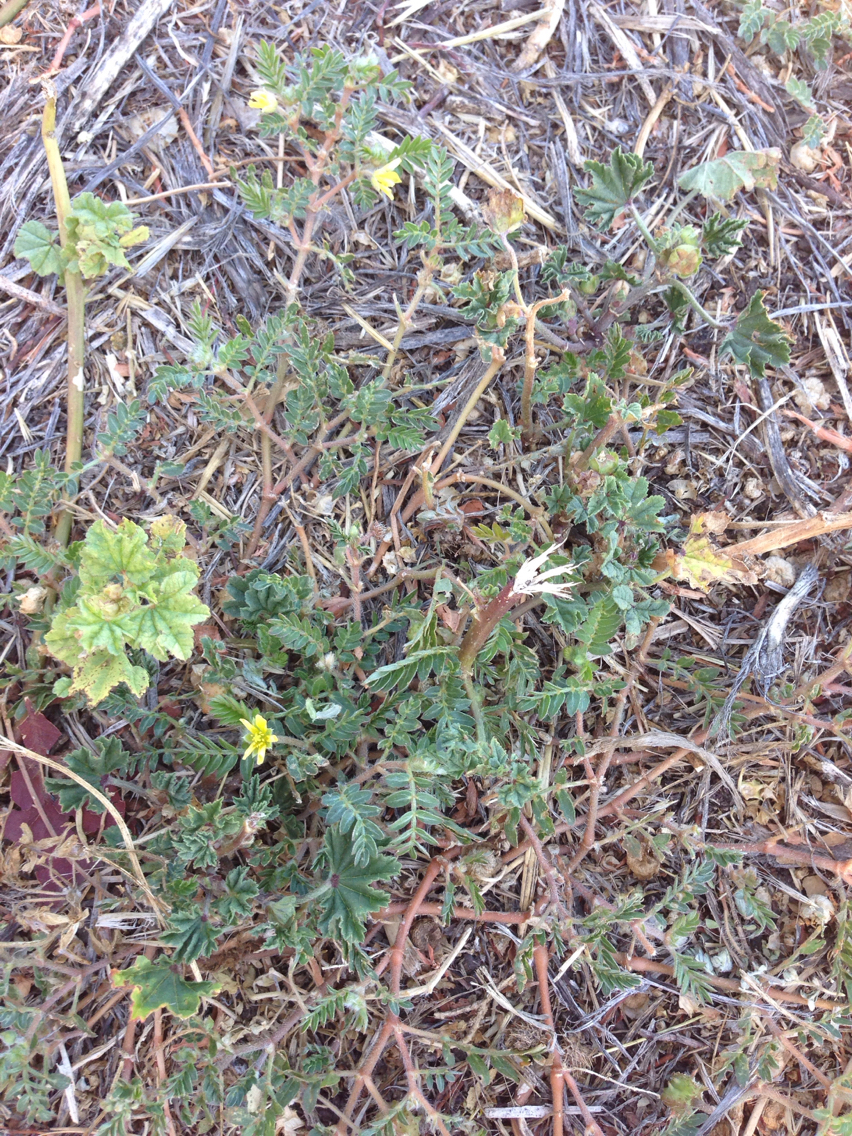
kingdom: Plantae
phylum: Tracheophyta
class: Magnoliopsida
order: Zygophyllales
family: Zygophyllaceae
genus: Tribulus
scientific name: Tribulus terrestris
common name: Puncturevine
